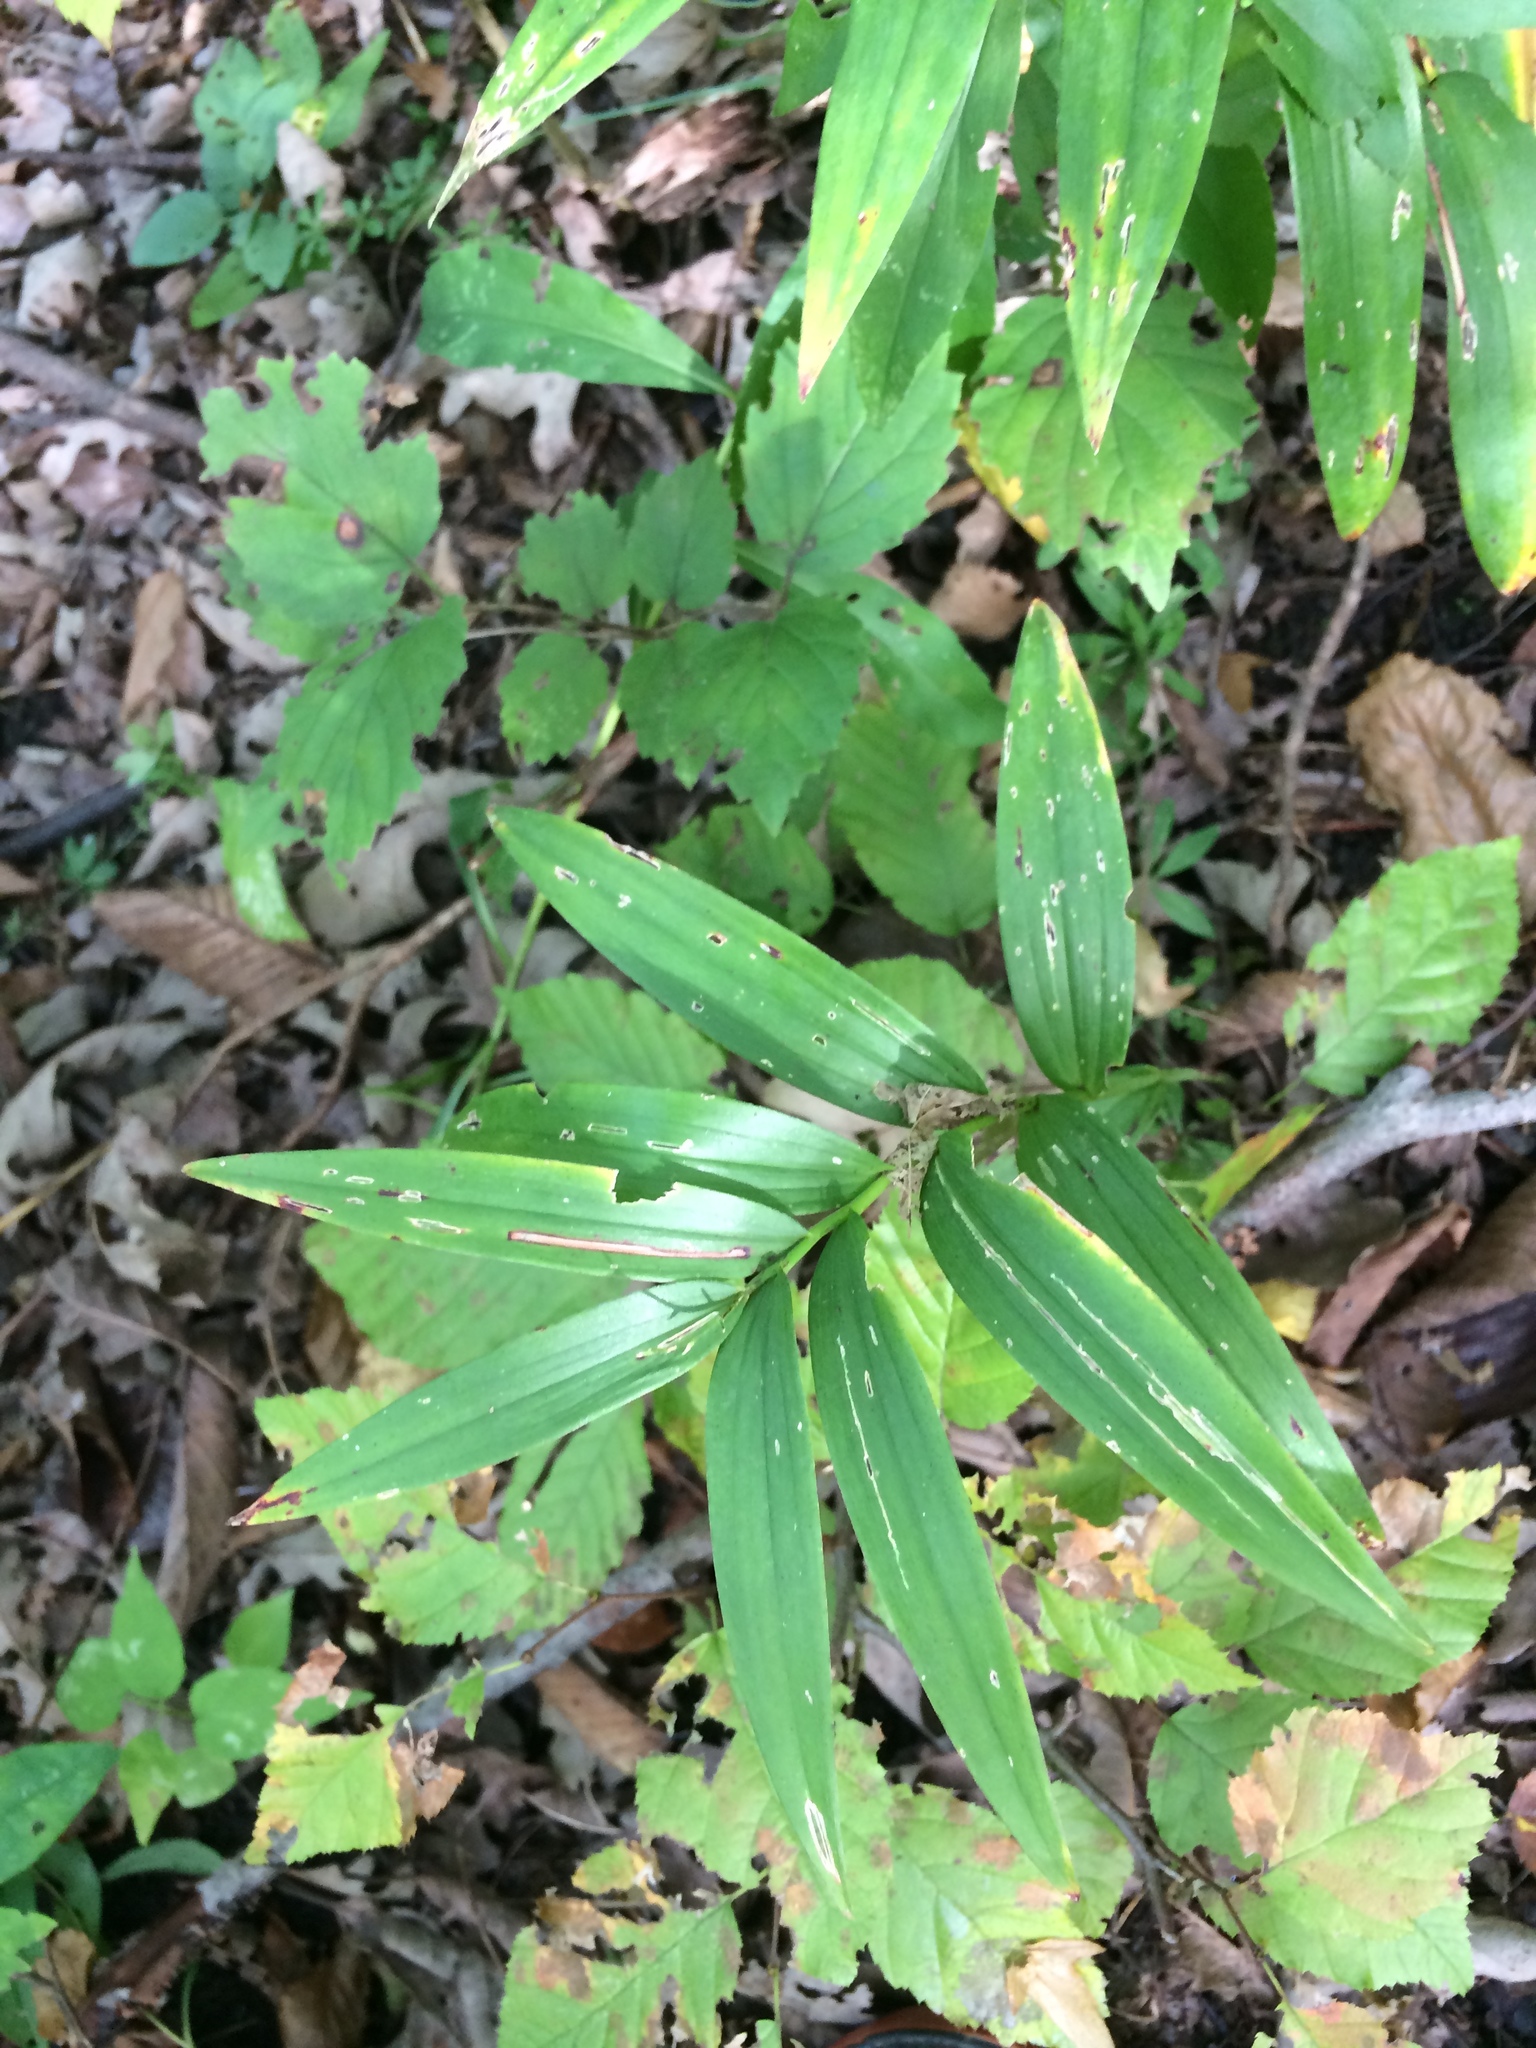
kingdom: Plantae
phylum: Tracheophyta
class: Liliopsida
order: Asparagales
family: Asparagaceae
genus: Maianthemum
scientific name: Maianthemum stellatum
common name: Little false solomon's seal
